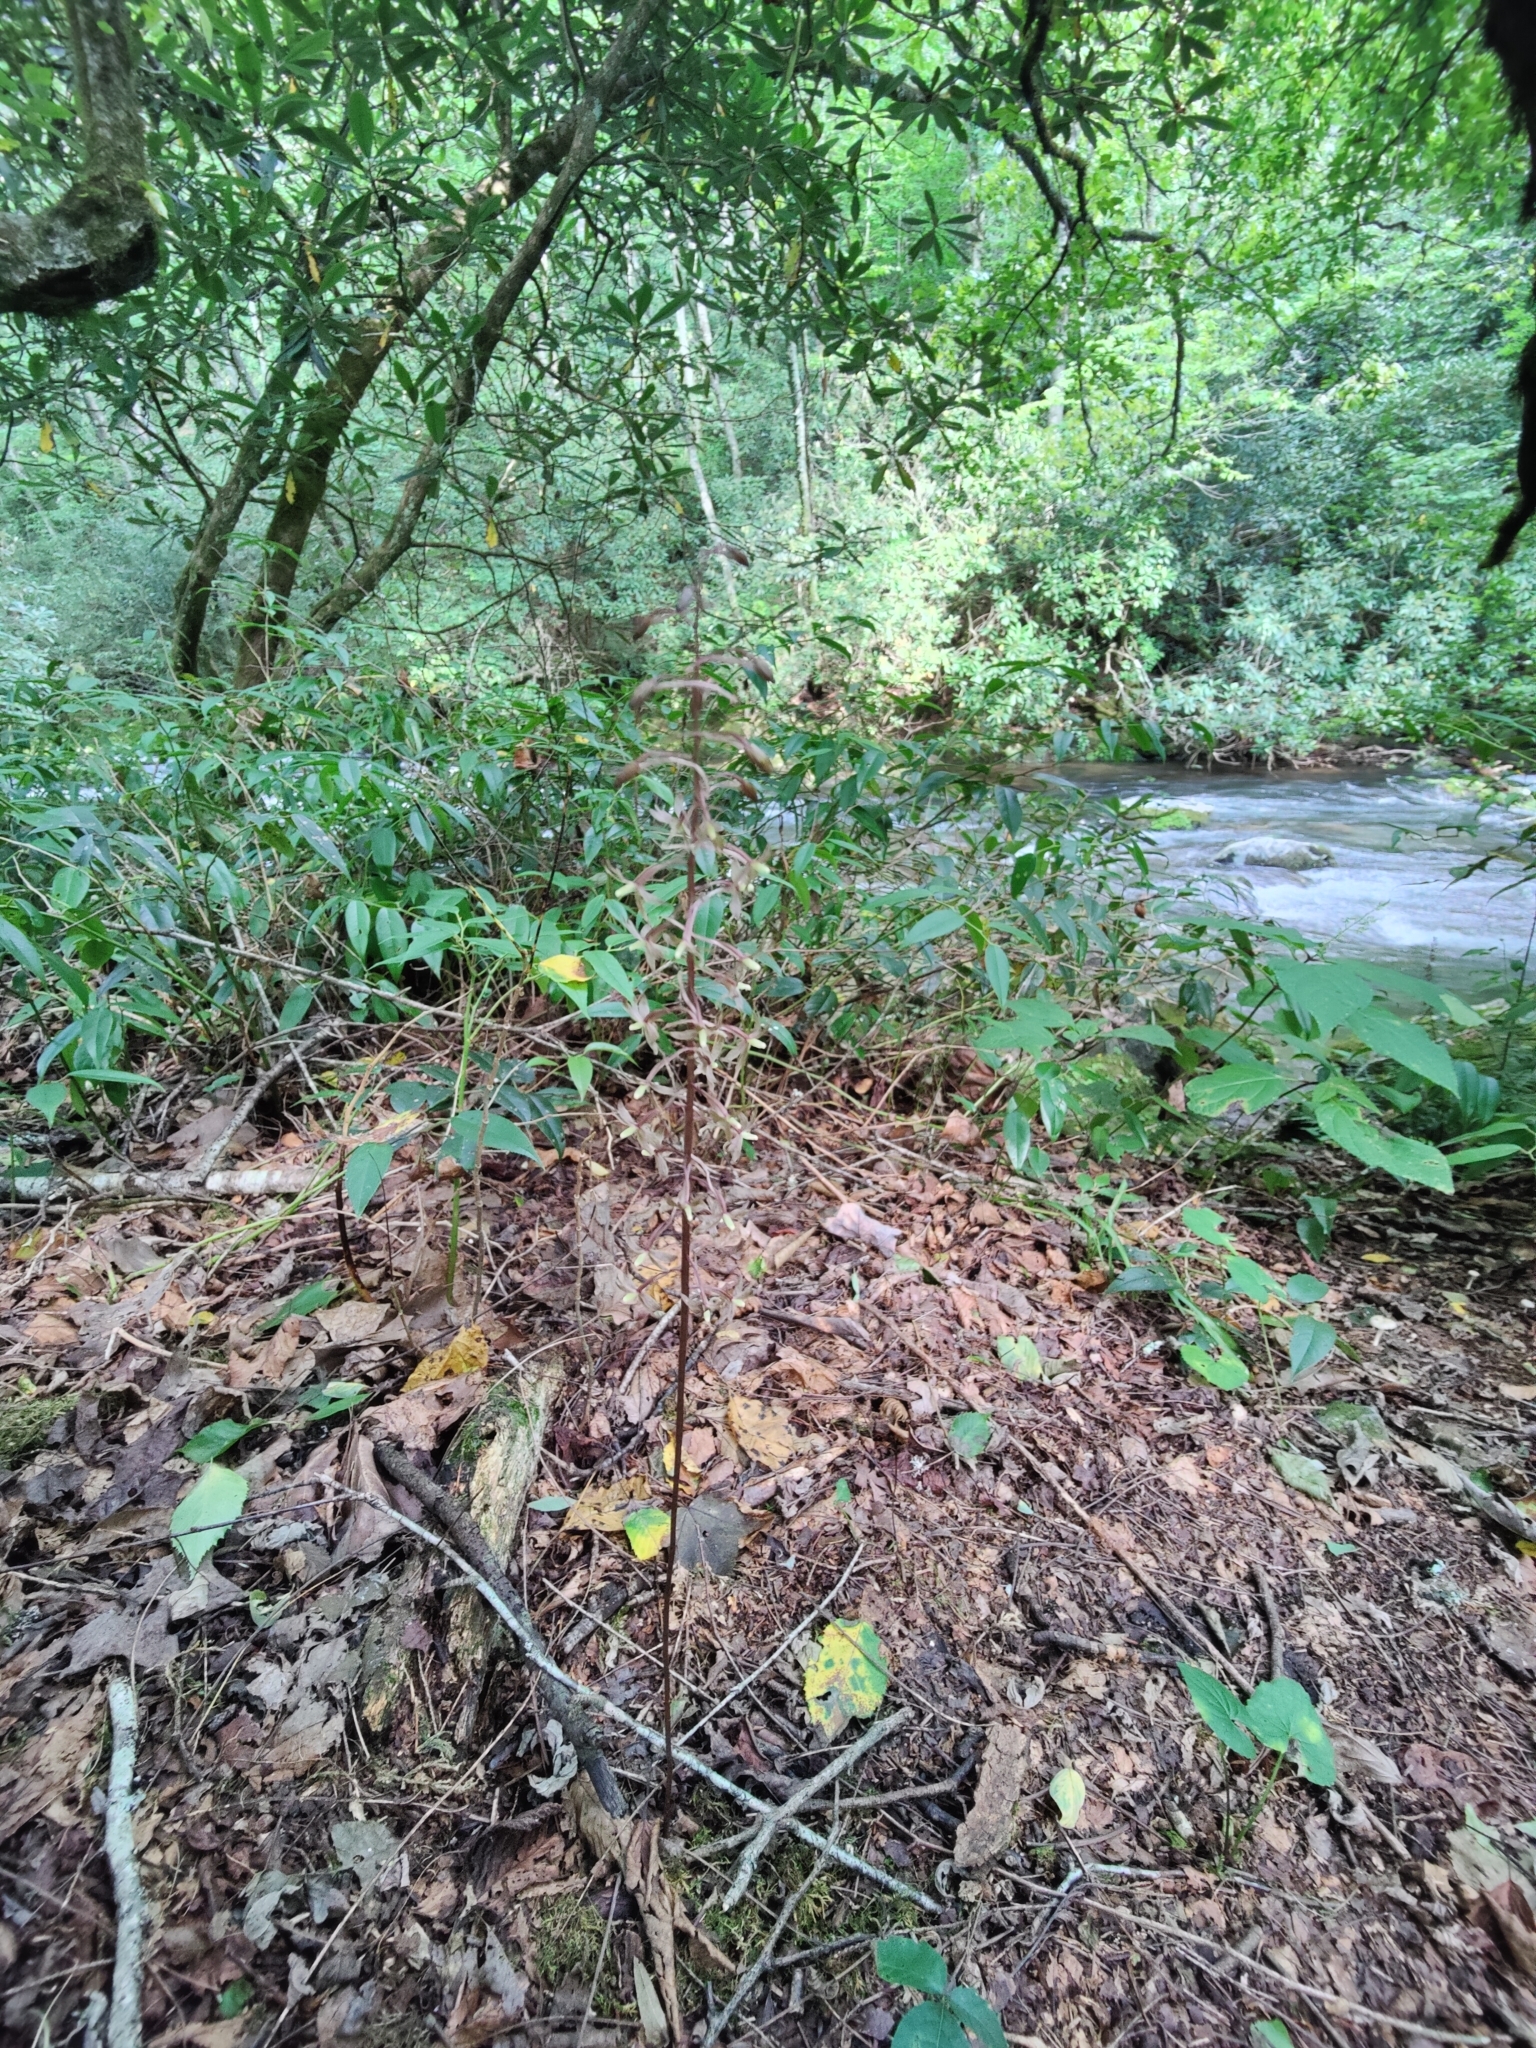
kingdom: Plantae
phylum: Tracheophyta
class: Liliopsida
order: Asparagales
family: Orchidaceae
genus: Tipularia
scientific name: Tipularia discolor
